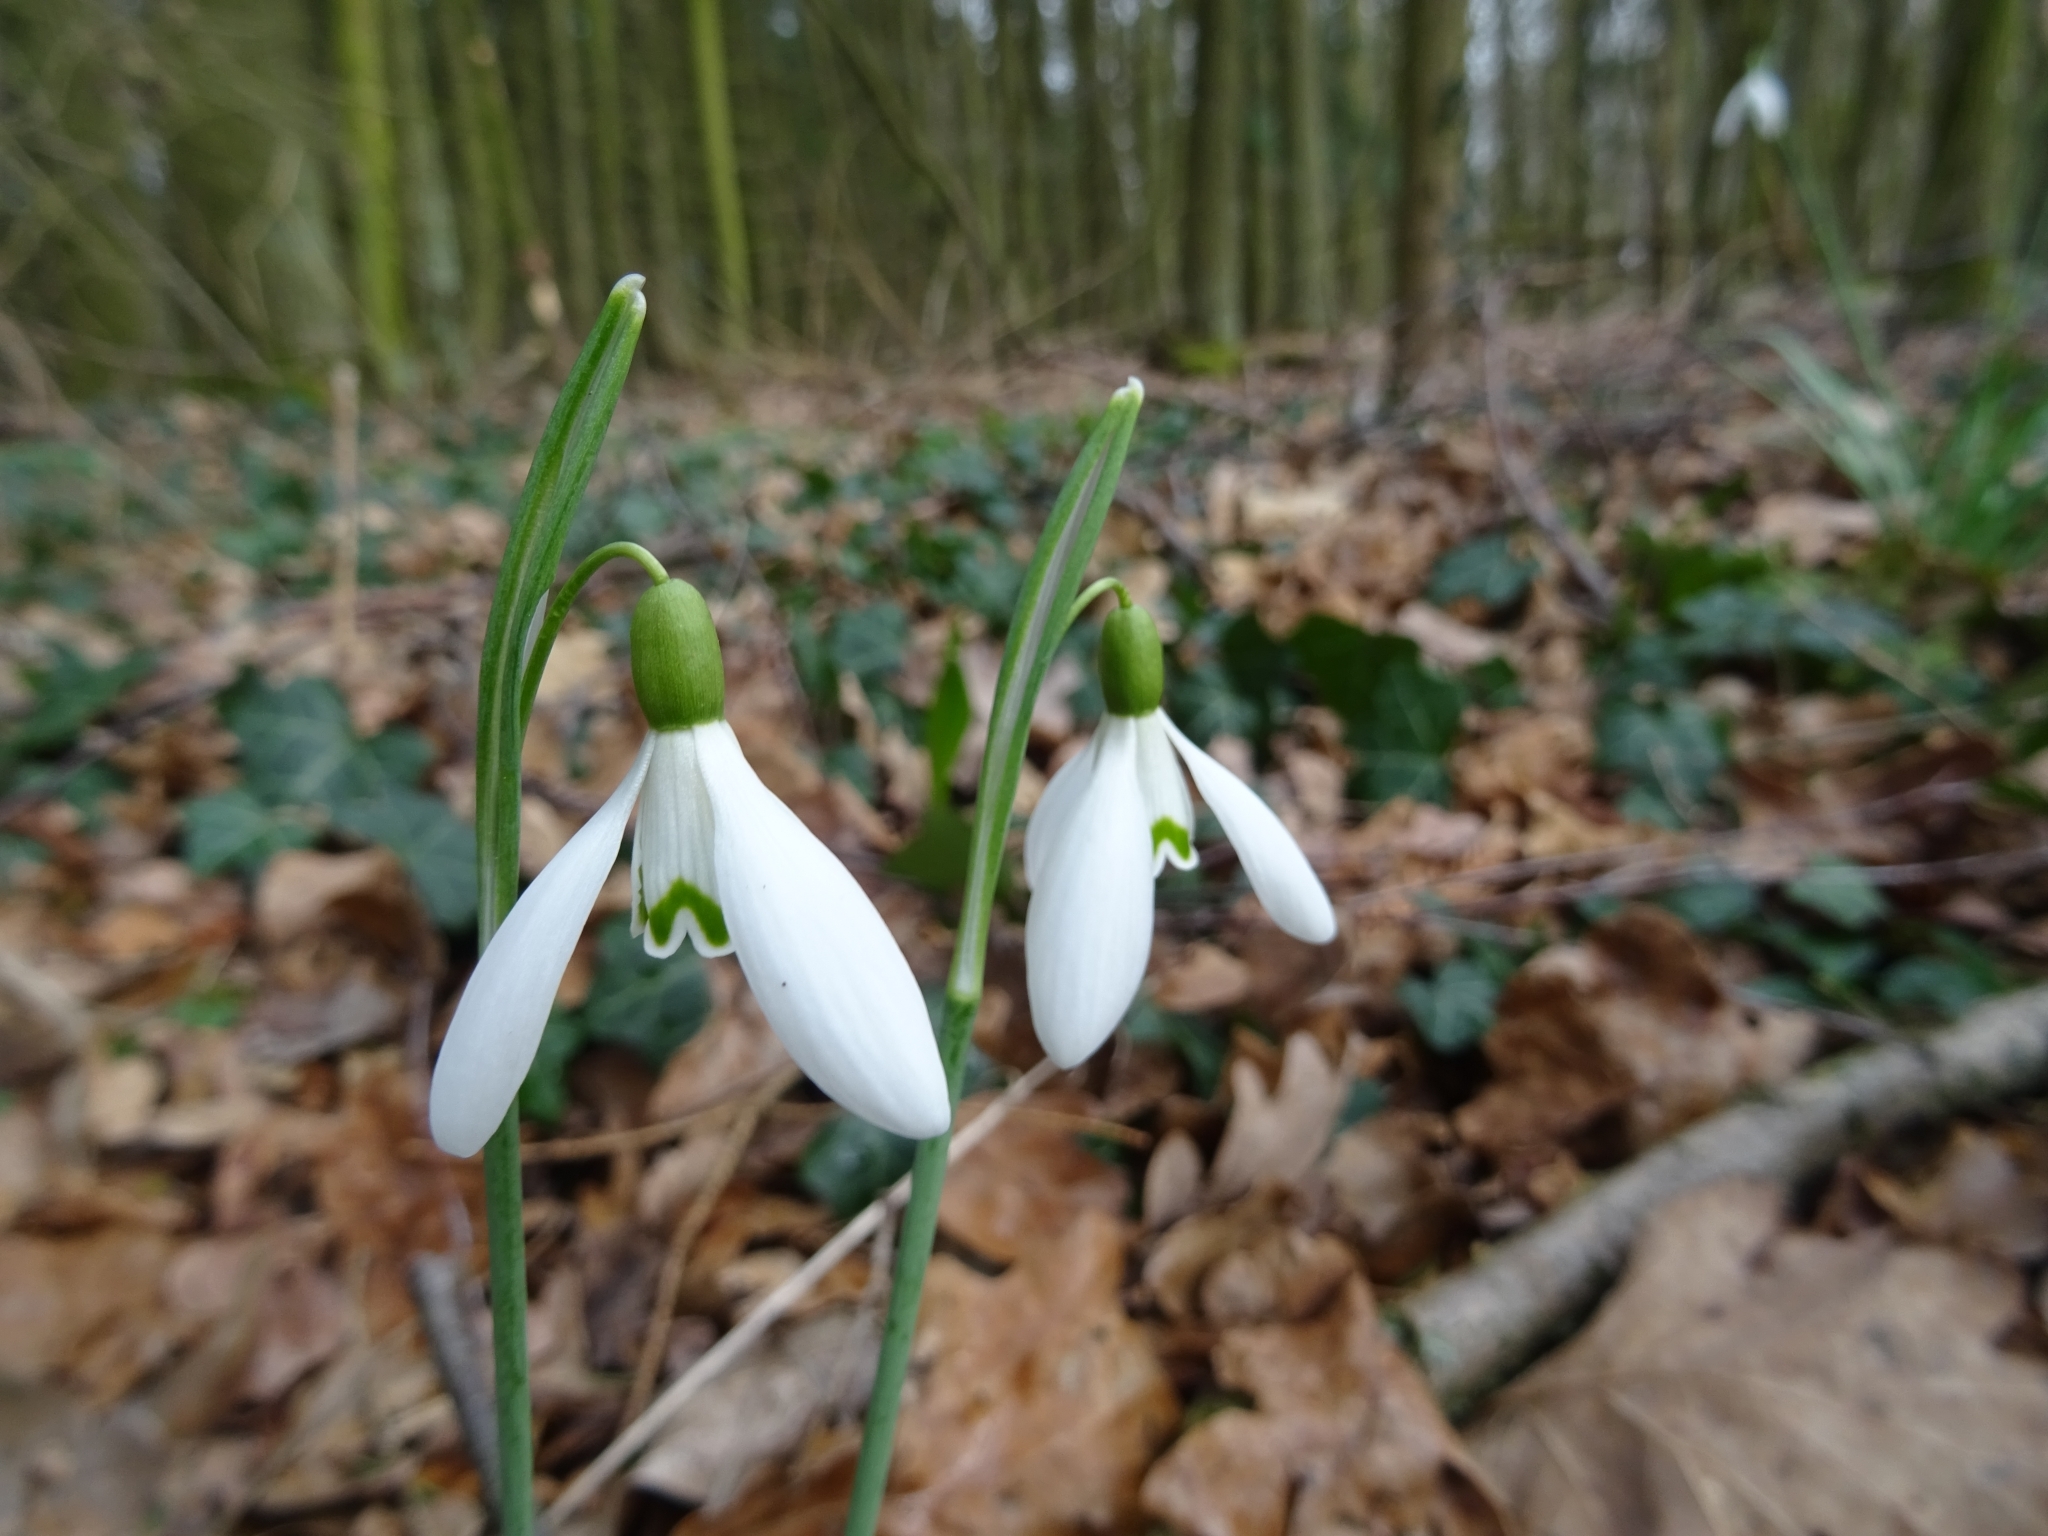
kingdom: Plantae
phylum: Tracheophyta
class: Liliopsida
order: Asparagales
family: Amaryllidaceae
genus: Galanthus
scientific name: Galanthus nivalis
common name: Snowdrop
